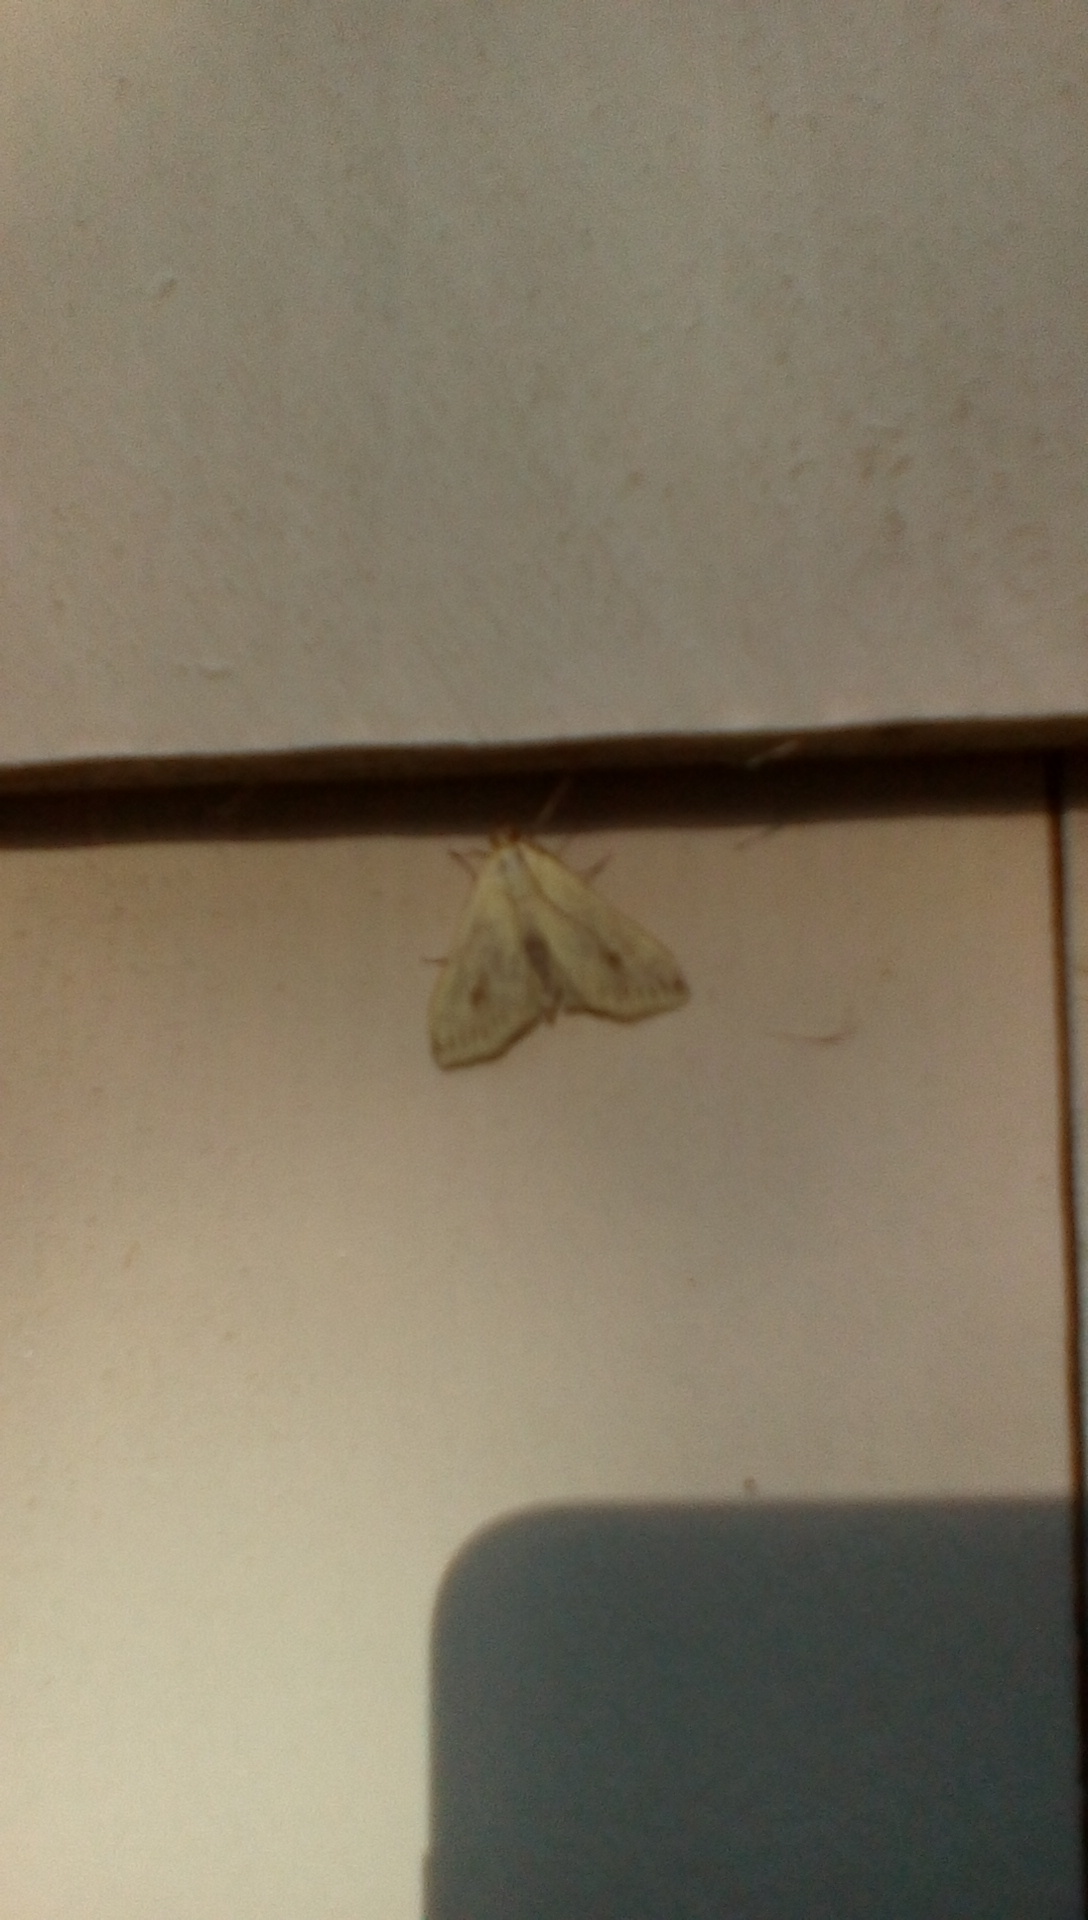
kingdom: Animalia
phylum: Arthropoda
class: Insecta
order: Lepidoptera
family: Crambidae
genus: Sitochroa
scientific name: Sitochroa palealis
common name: Greenish-yellow sitochroa moth
